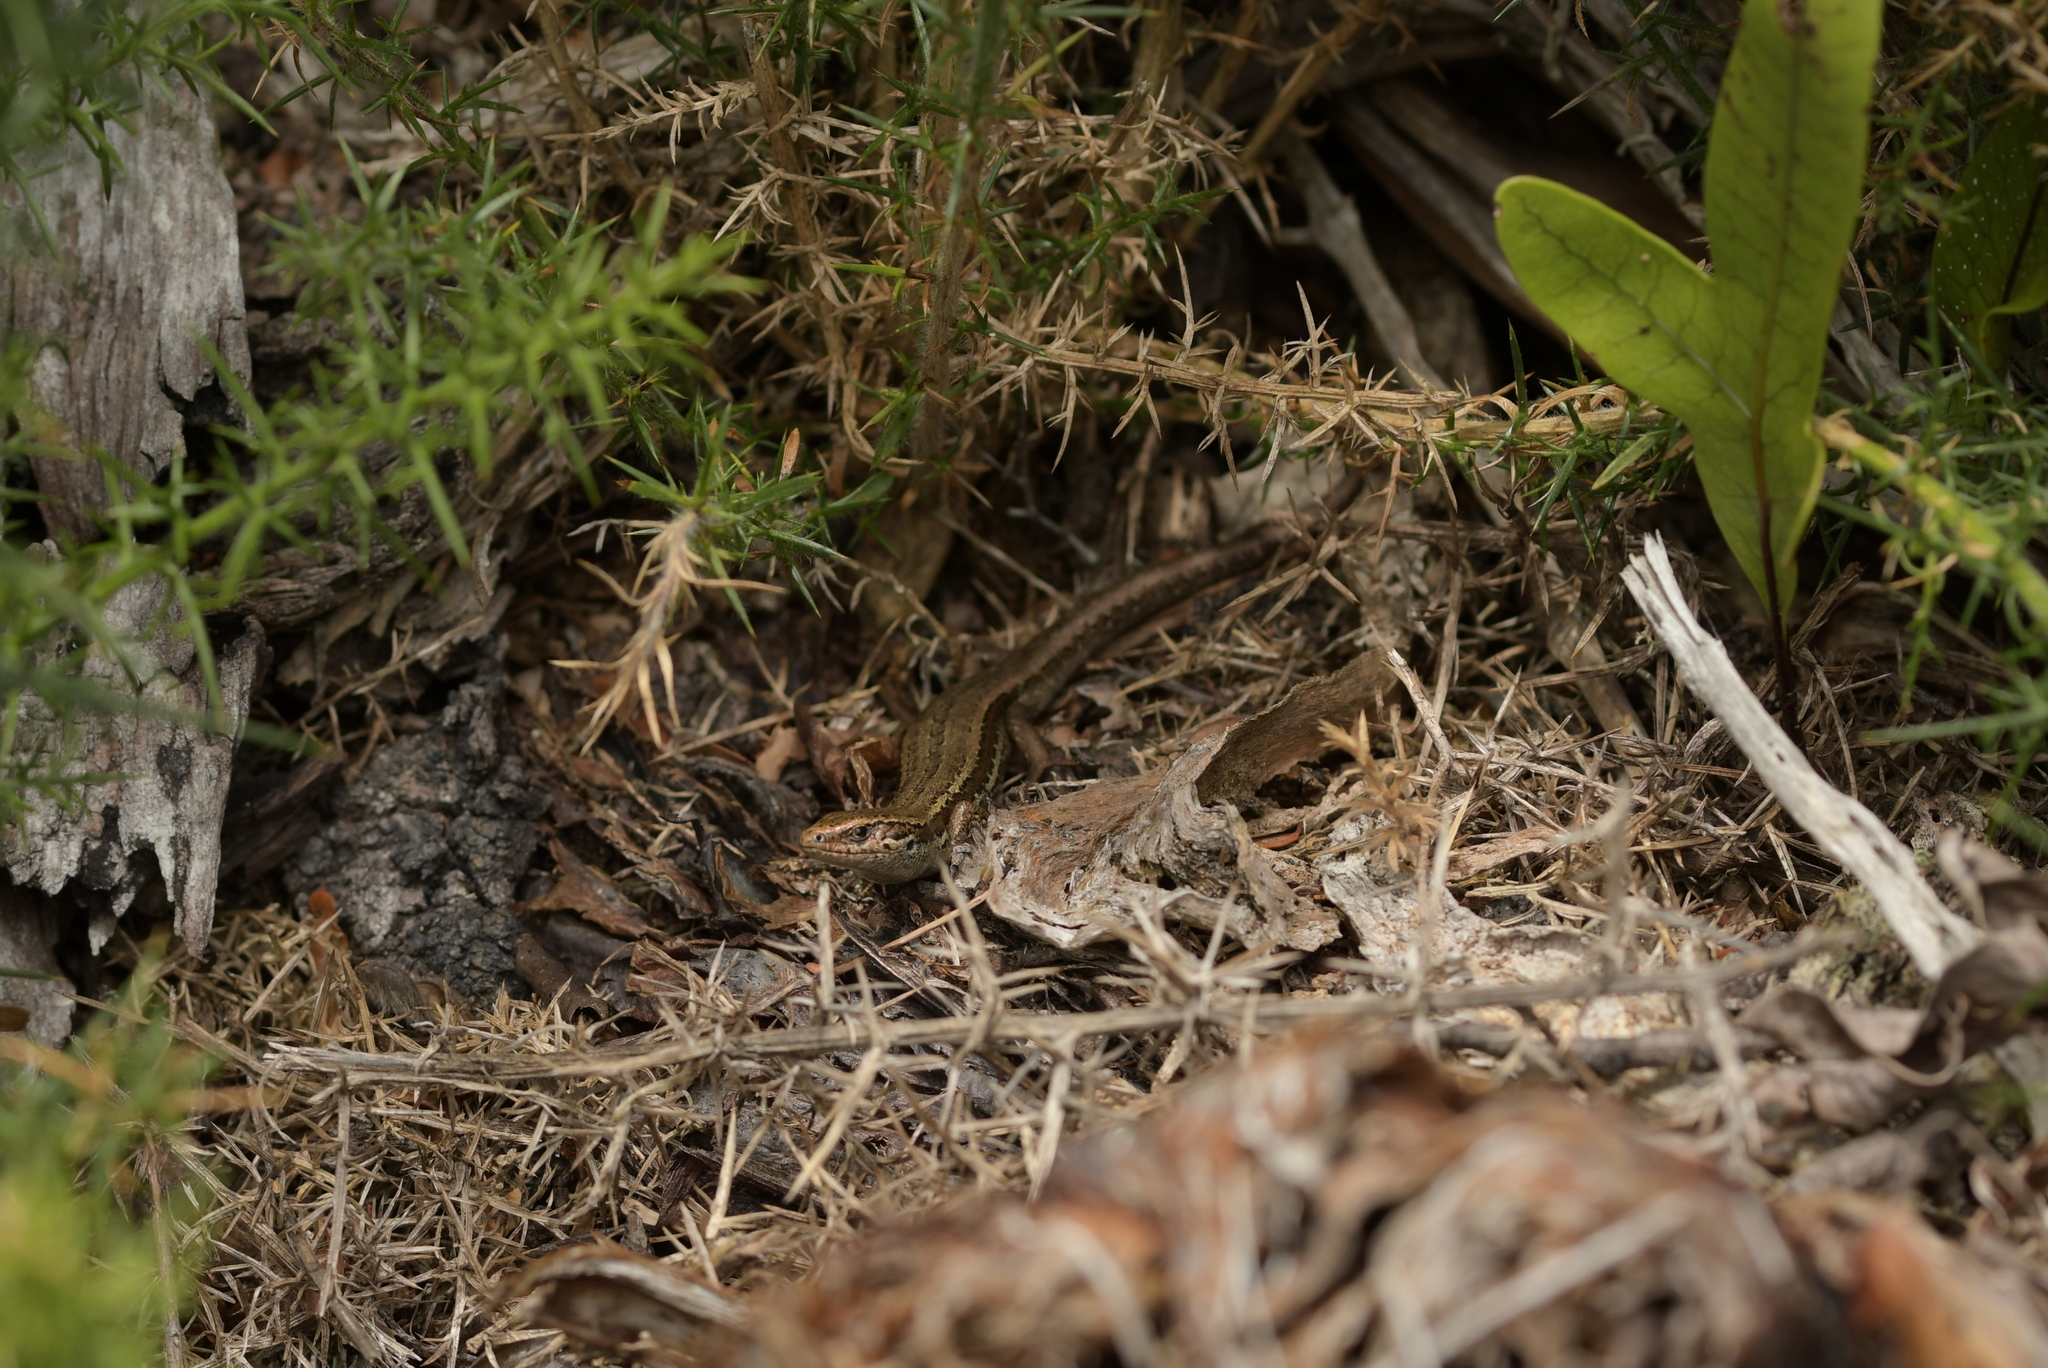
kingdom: Animalia
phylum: Chordata
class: Squamata
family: Scincidae
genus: Oligosoma
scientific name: Oligosoma polychroma
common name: Common new zealand skink
